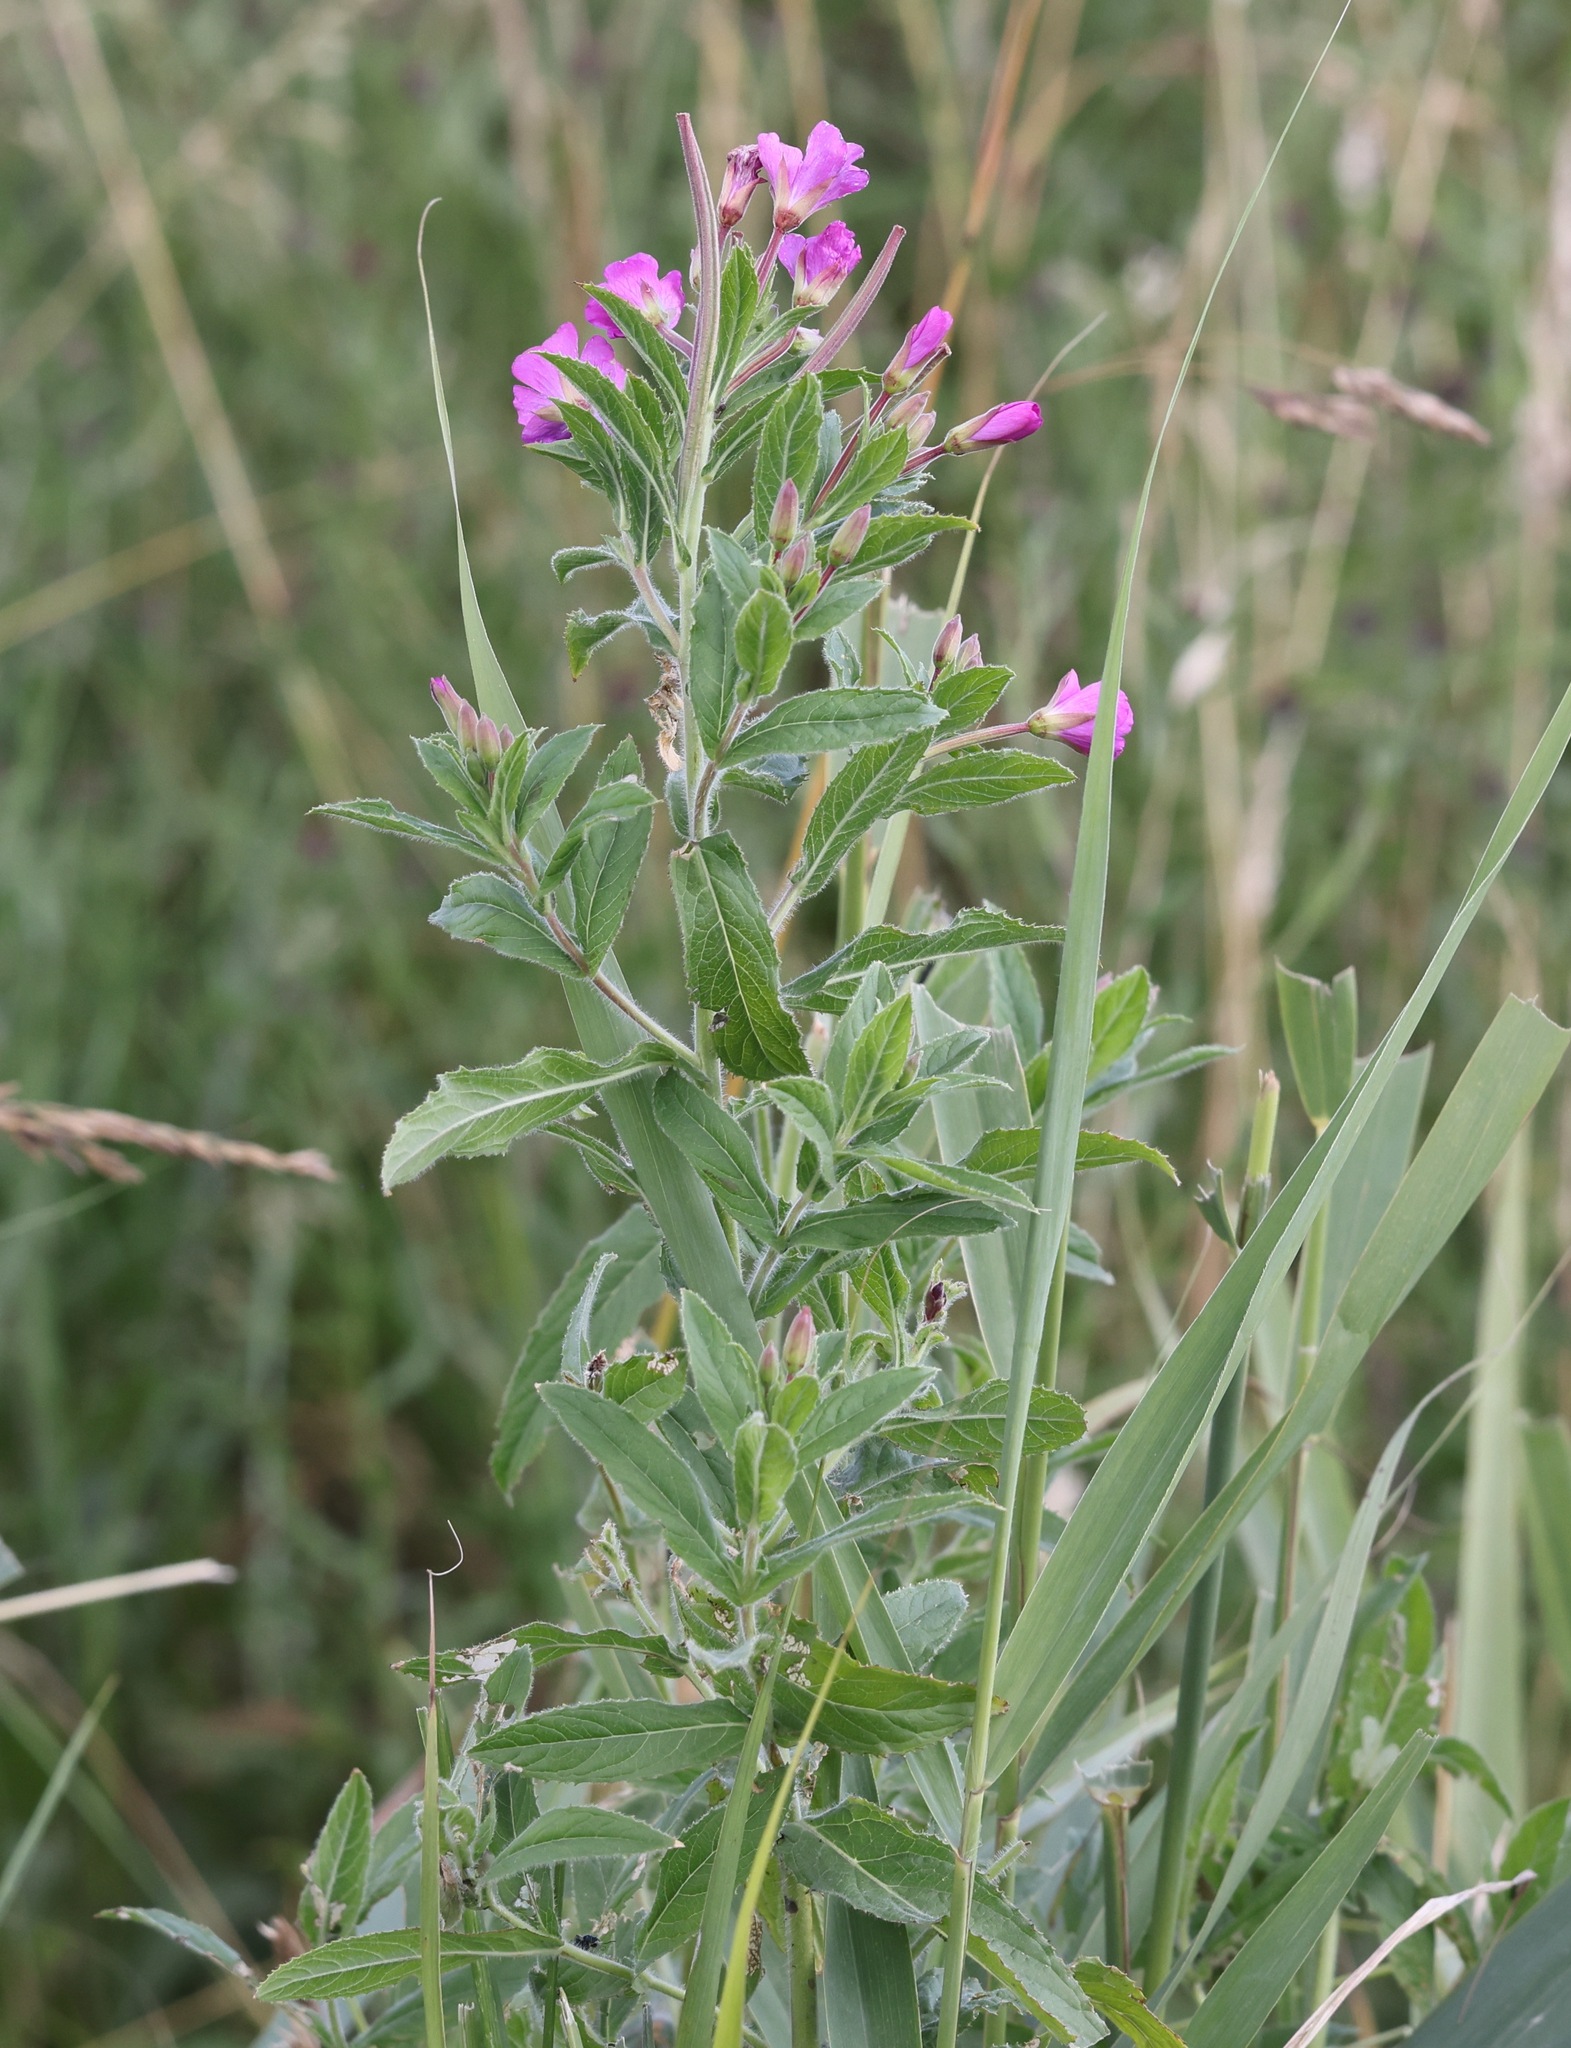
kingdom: Plantae
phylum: Tracheophyta
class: Magnoliopsida
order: Myrtales
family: Onagraceae
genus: Epilobium
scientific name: Epilobium hirsutum
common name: Great willowherb
